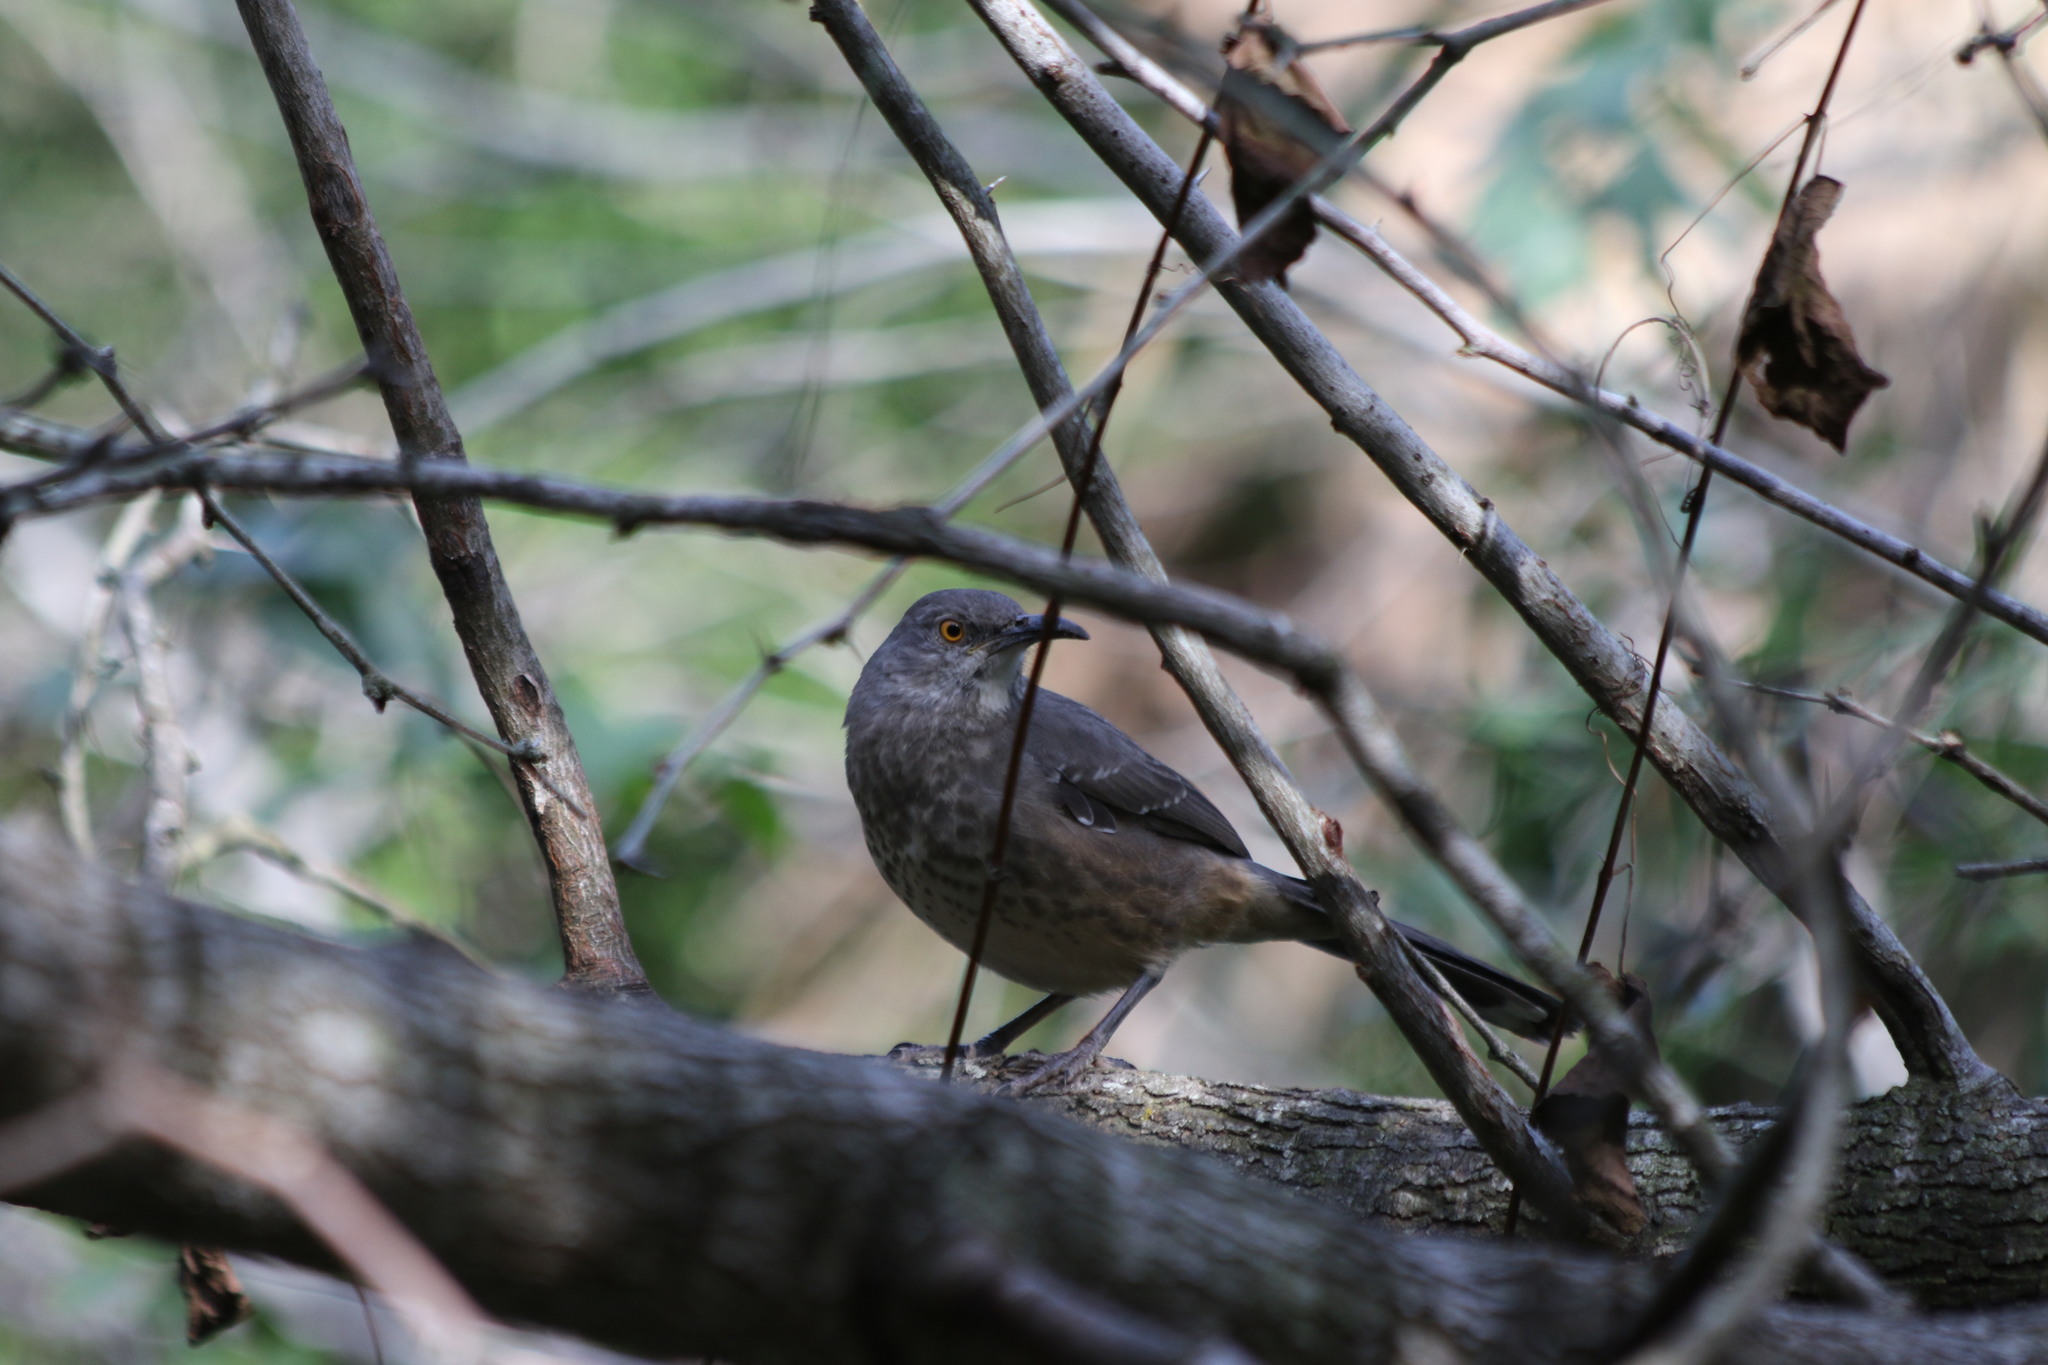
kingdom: Animalia
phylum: Chordata
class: Aves
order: Passeriformes
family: Mimidae
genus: Toxostoma
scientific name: Toxostoma curvirostre
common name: Curve-billed thrasher
